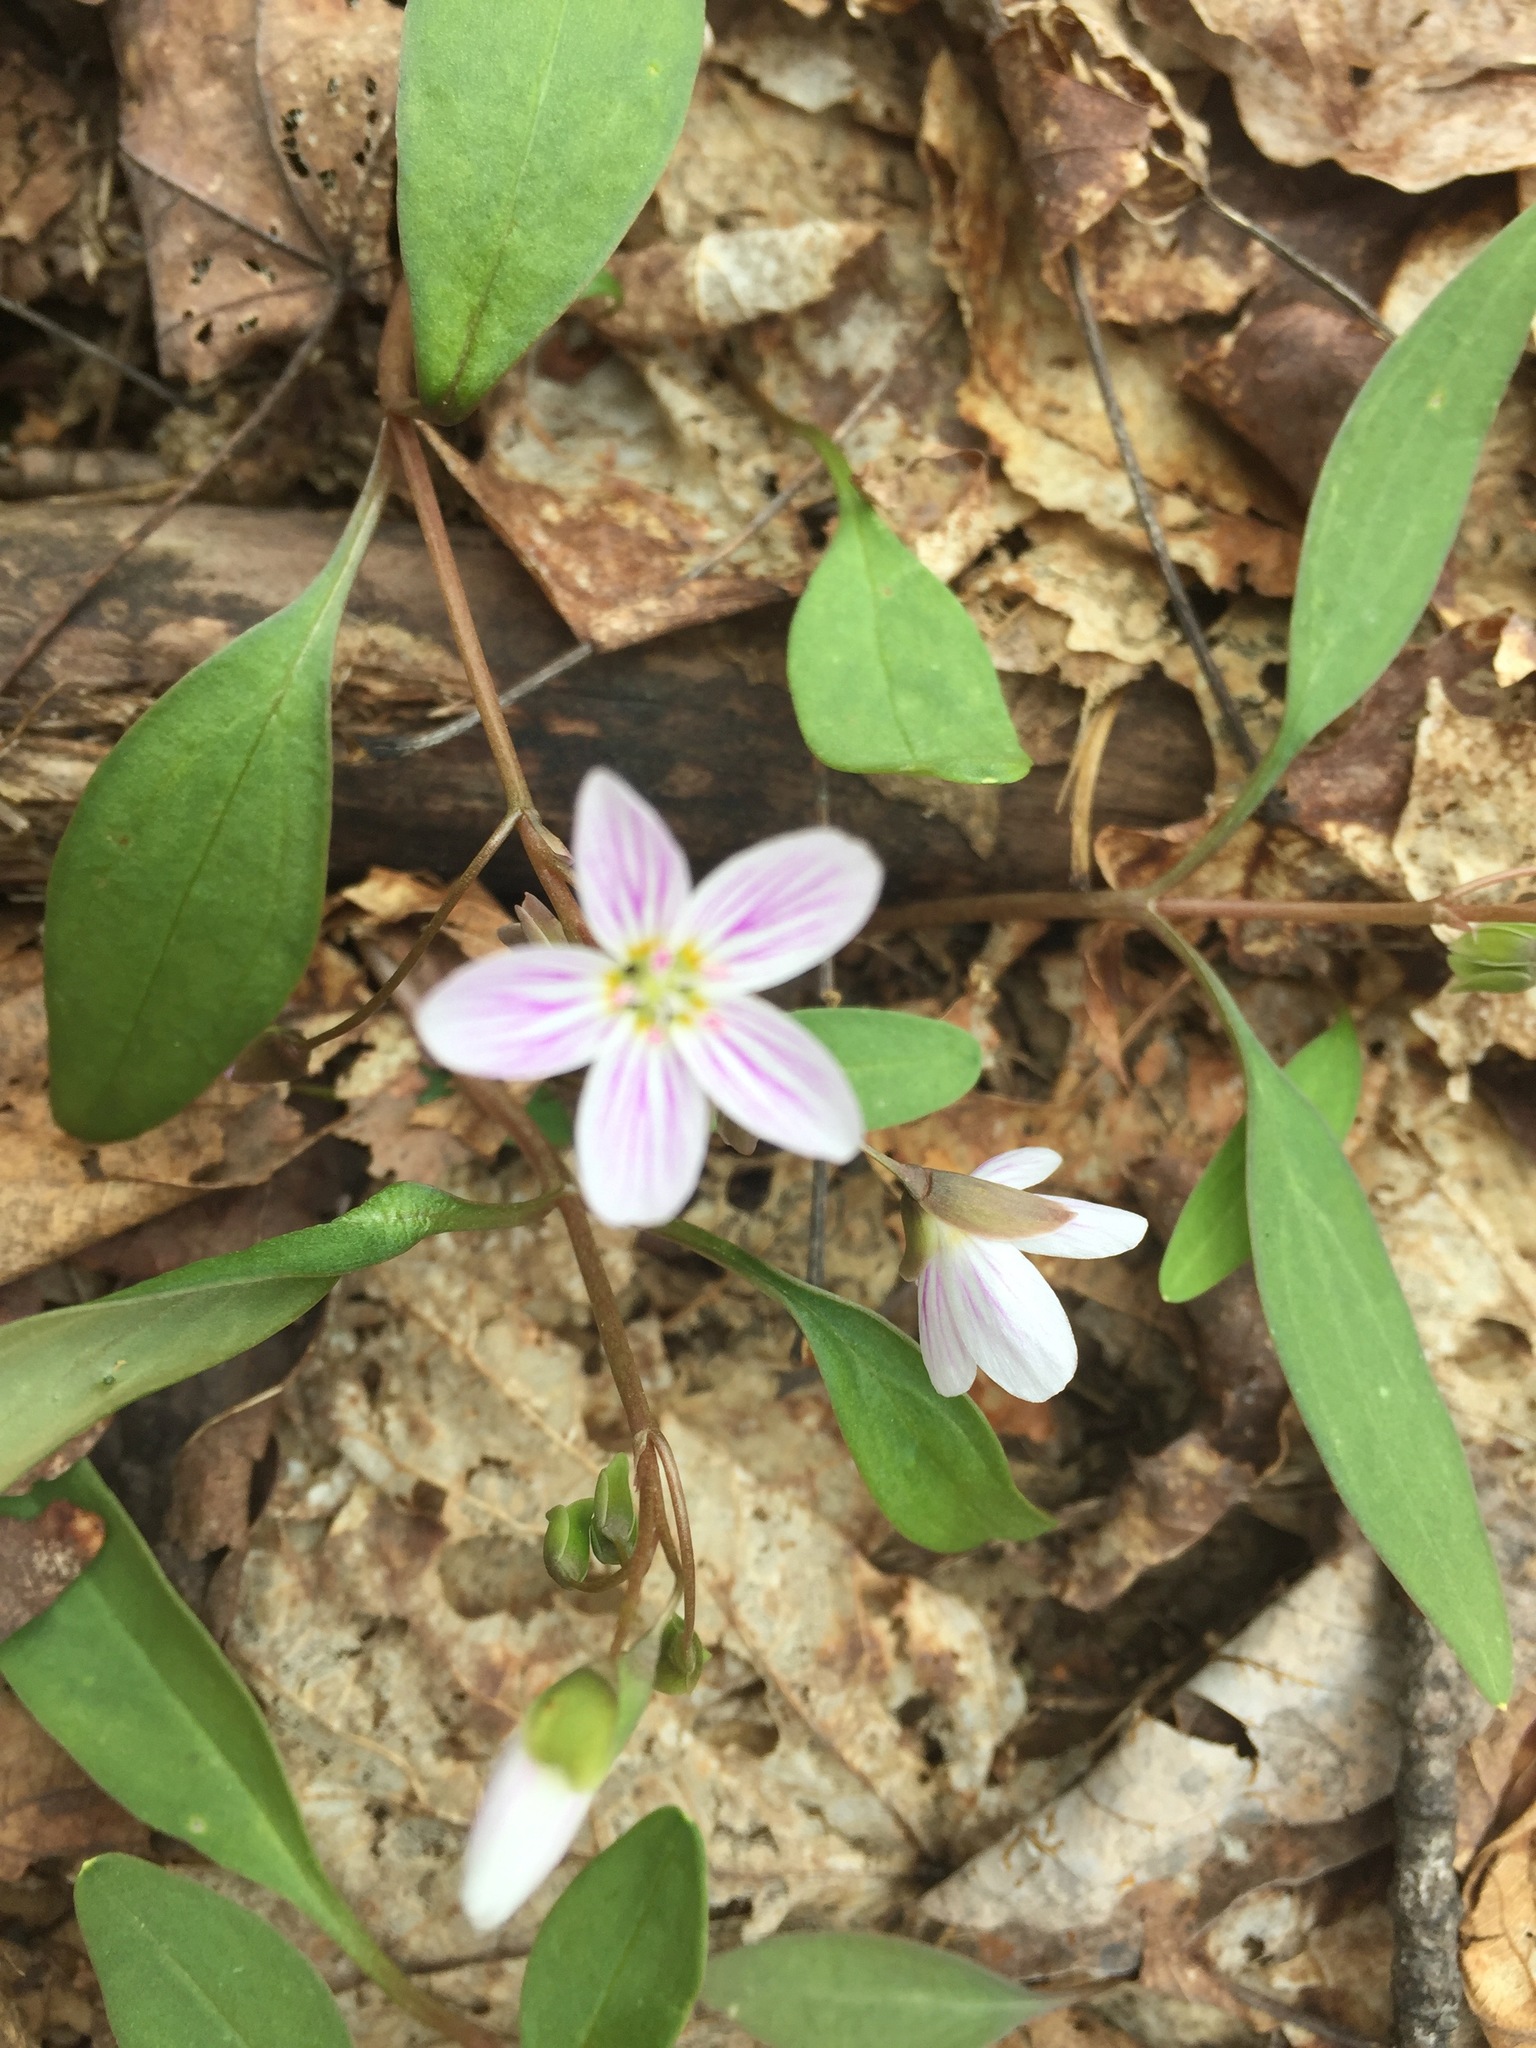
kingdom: Plantae
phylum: Tracheophyta
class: Magnoliopsida
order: Caryophyllales
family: Montiaceae
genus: Claytonia
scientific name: Claytonia caroliniana
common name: Carolina spring beauty
